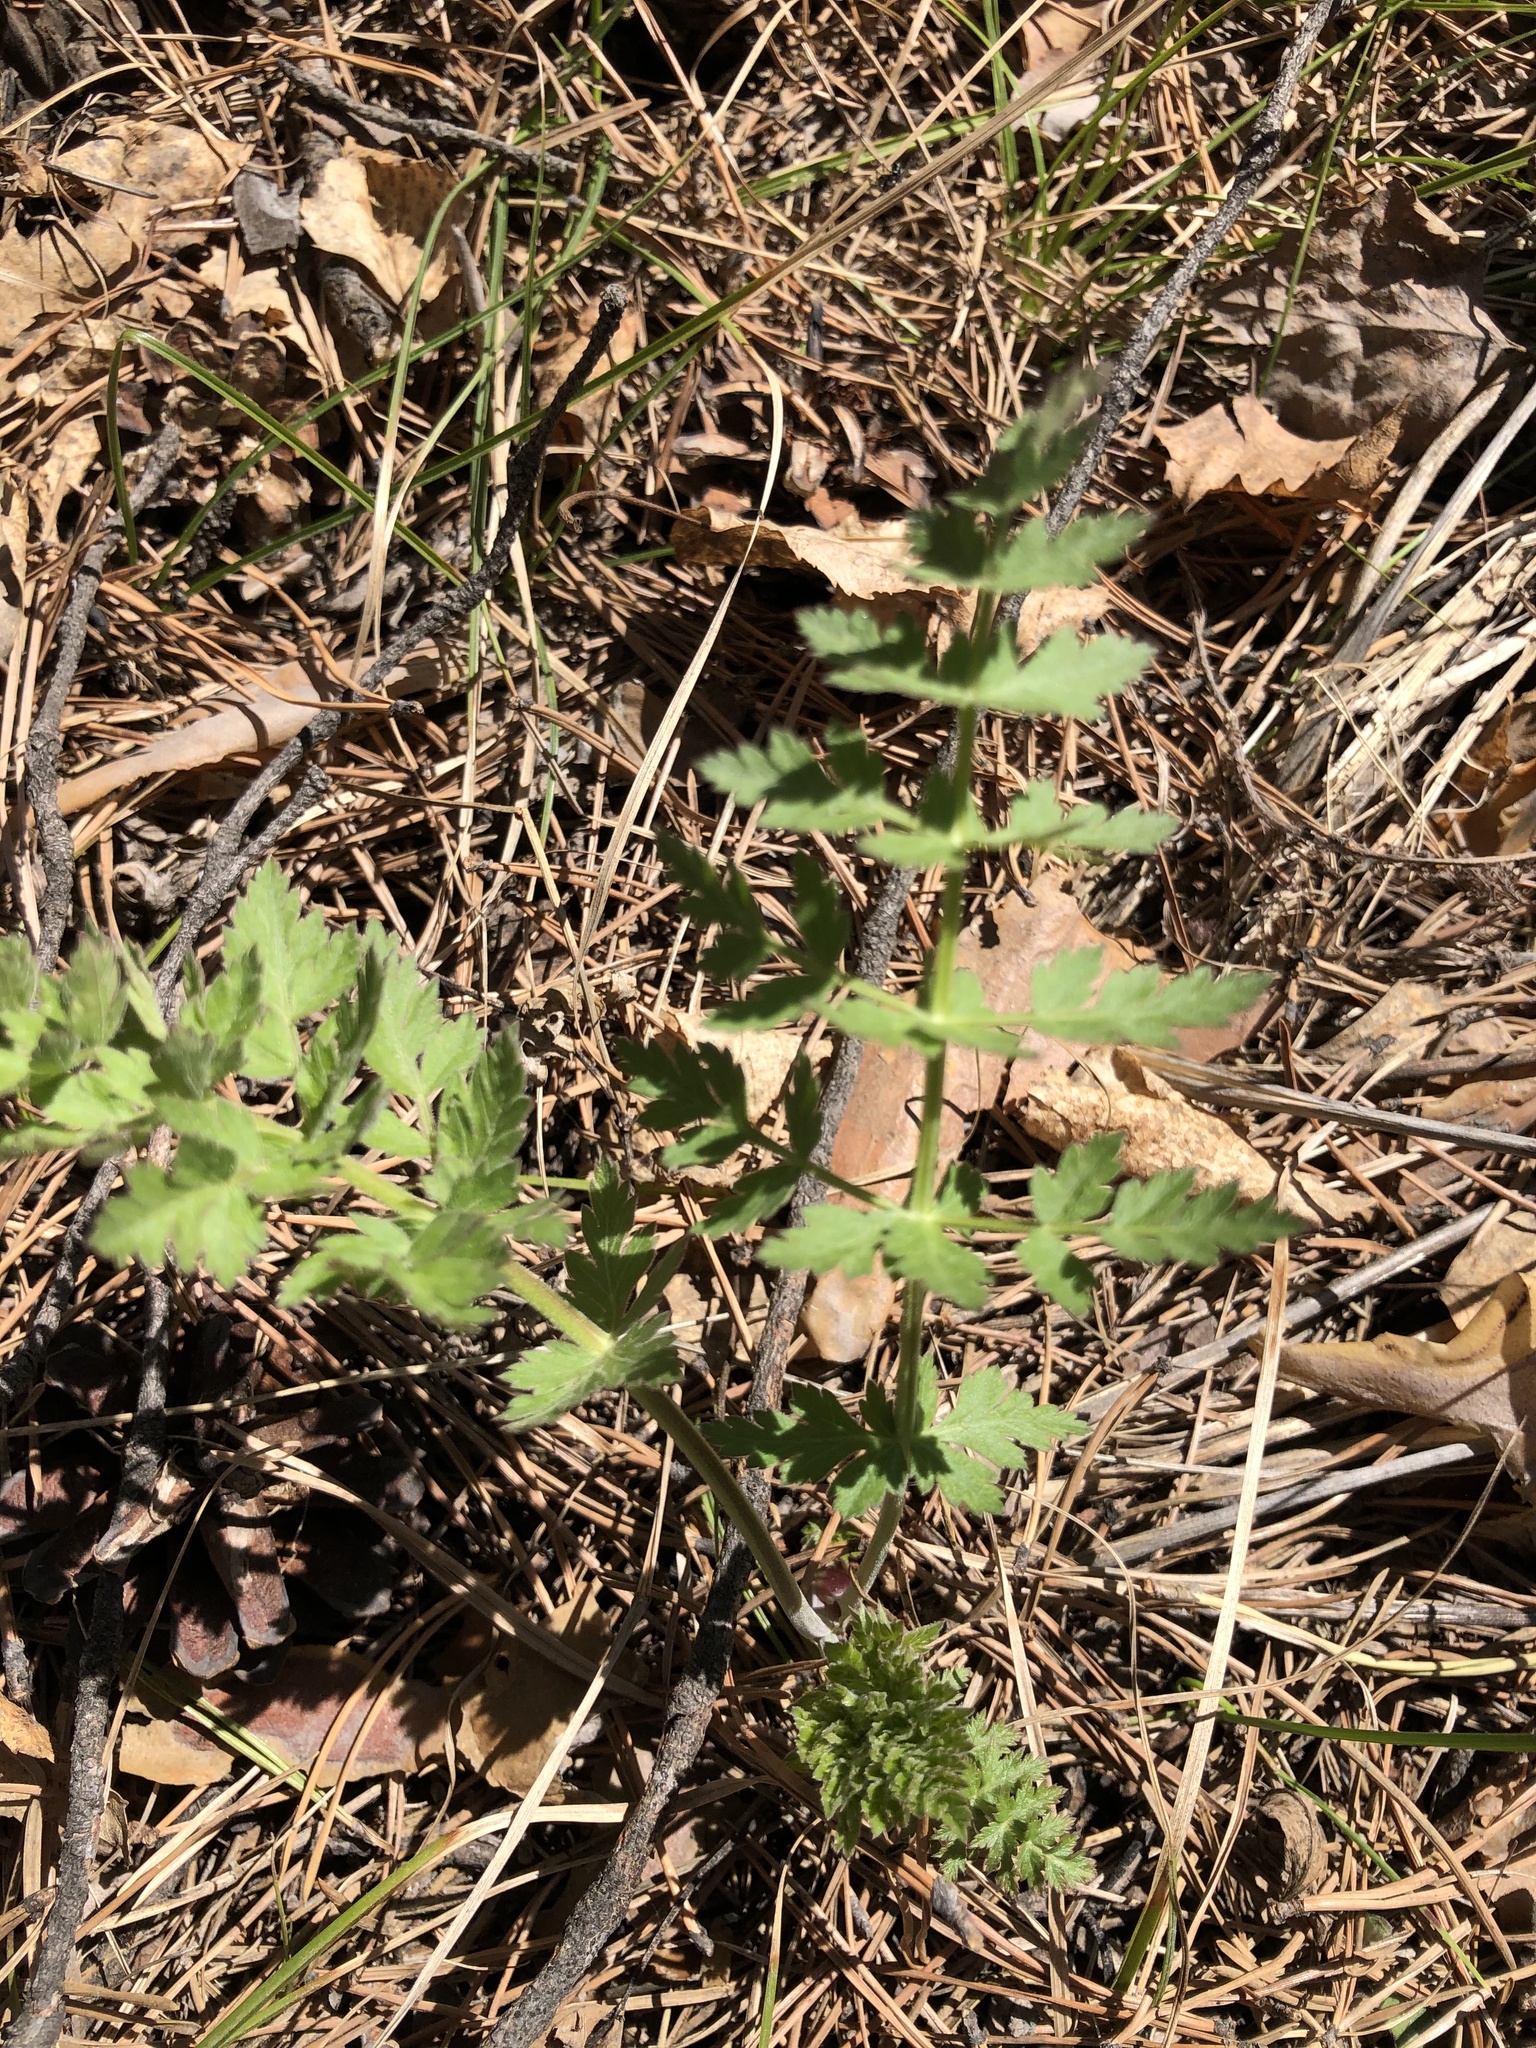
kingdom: Plantae
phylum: Tracheophyta
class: Magnoliopsida
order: Apiales
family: Apiaceae
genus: Seseli
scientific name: Seseli libanotis
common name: Mooncarrot
